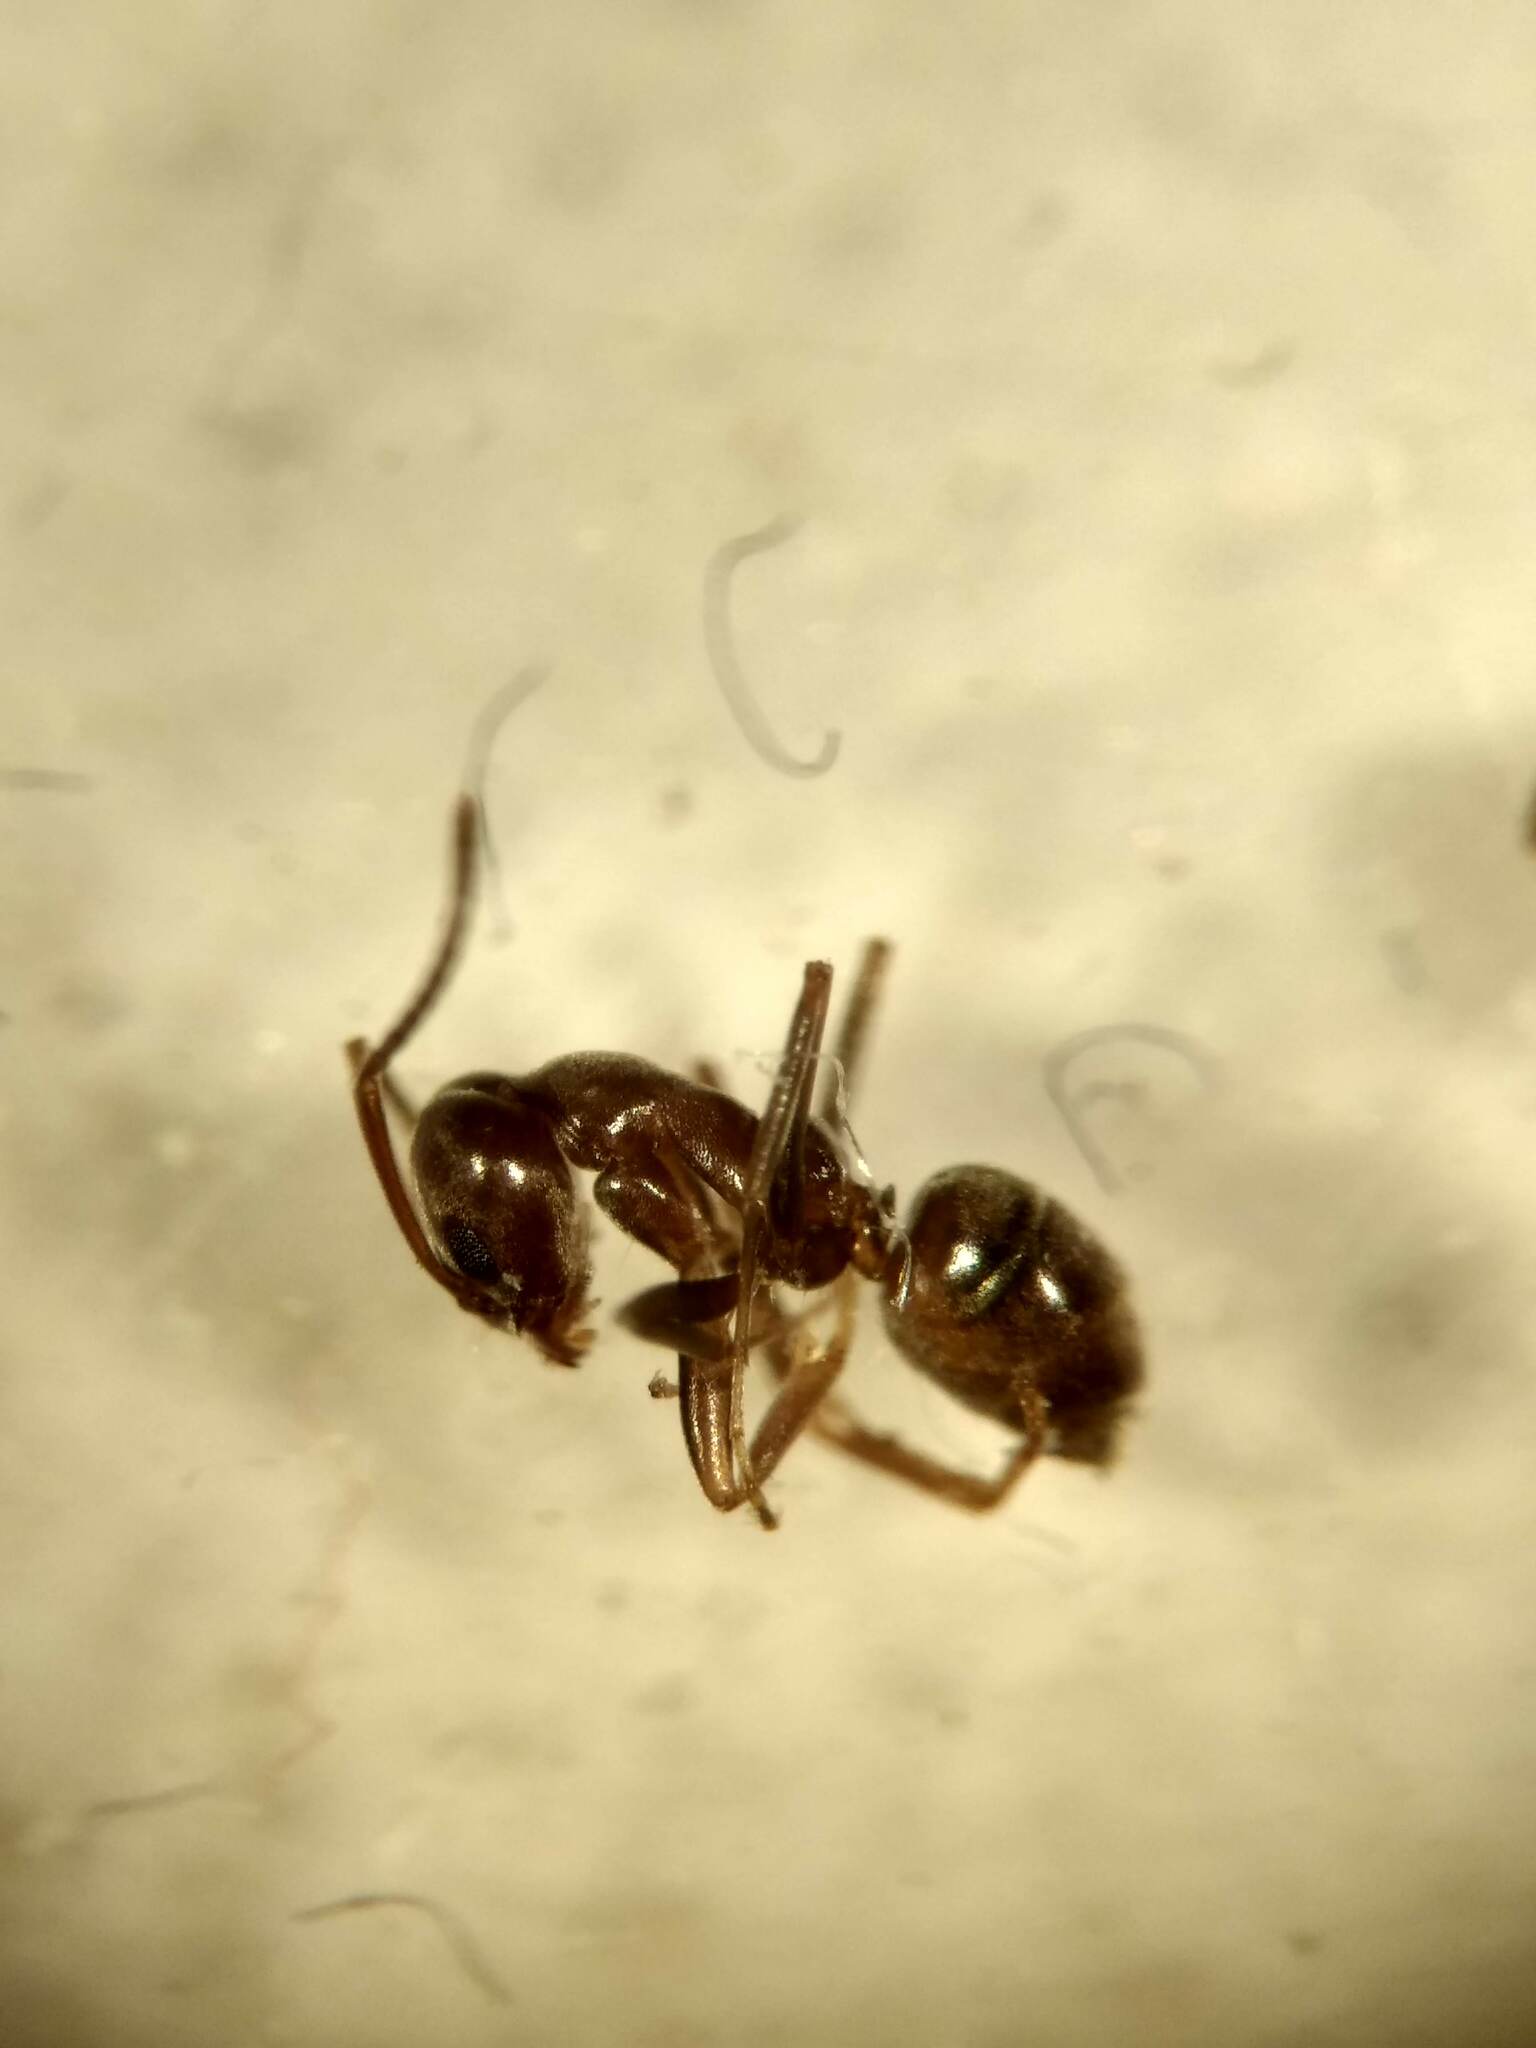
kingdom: Animalia
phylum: Arthropoda
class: Insecta
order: Hymenoptera
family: Formicidae
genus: Linepithema
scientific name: Linepithema humile
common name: Argentine ant
